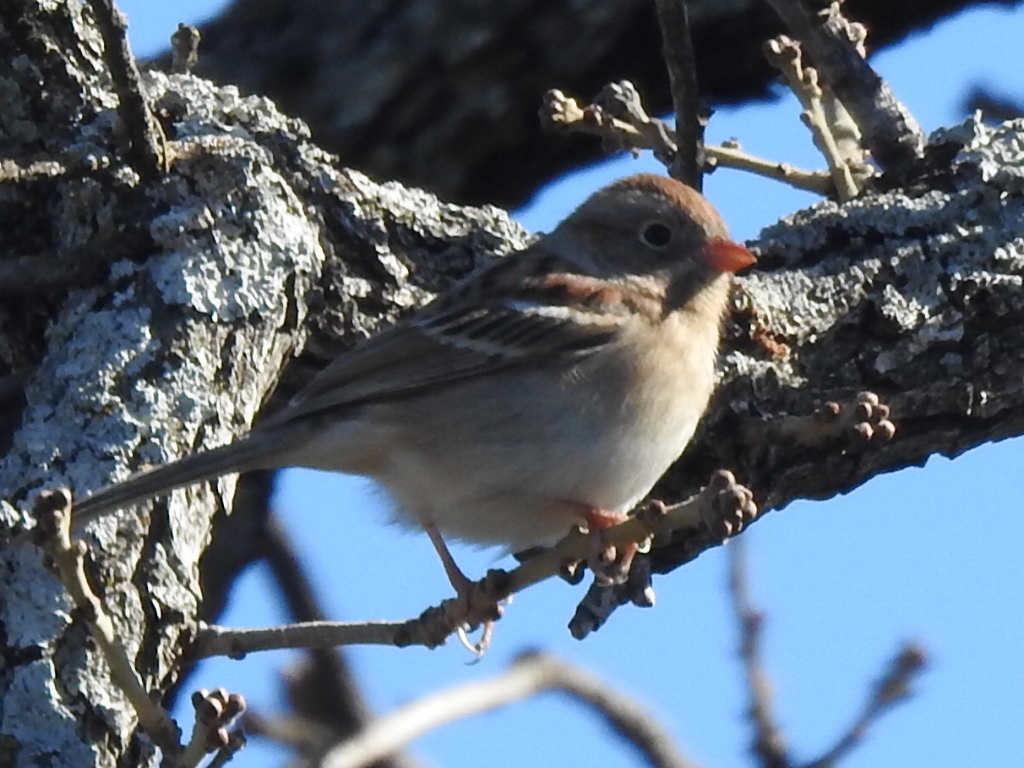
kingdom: Animalia
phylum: Chordata
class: Aves
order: Passeriformes
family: Passerellidae
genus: Spizella
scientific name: Spizella pusilla
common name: Field sparrow
